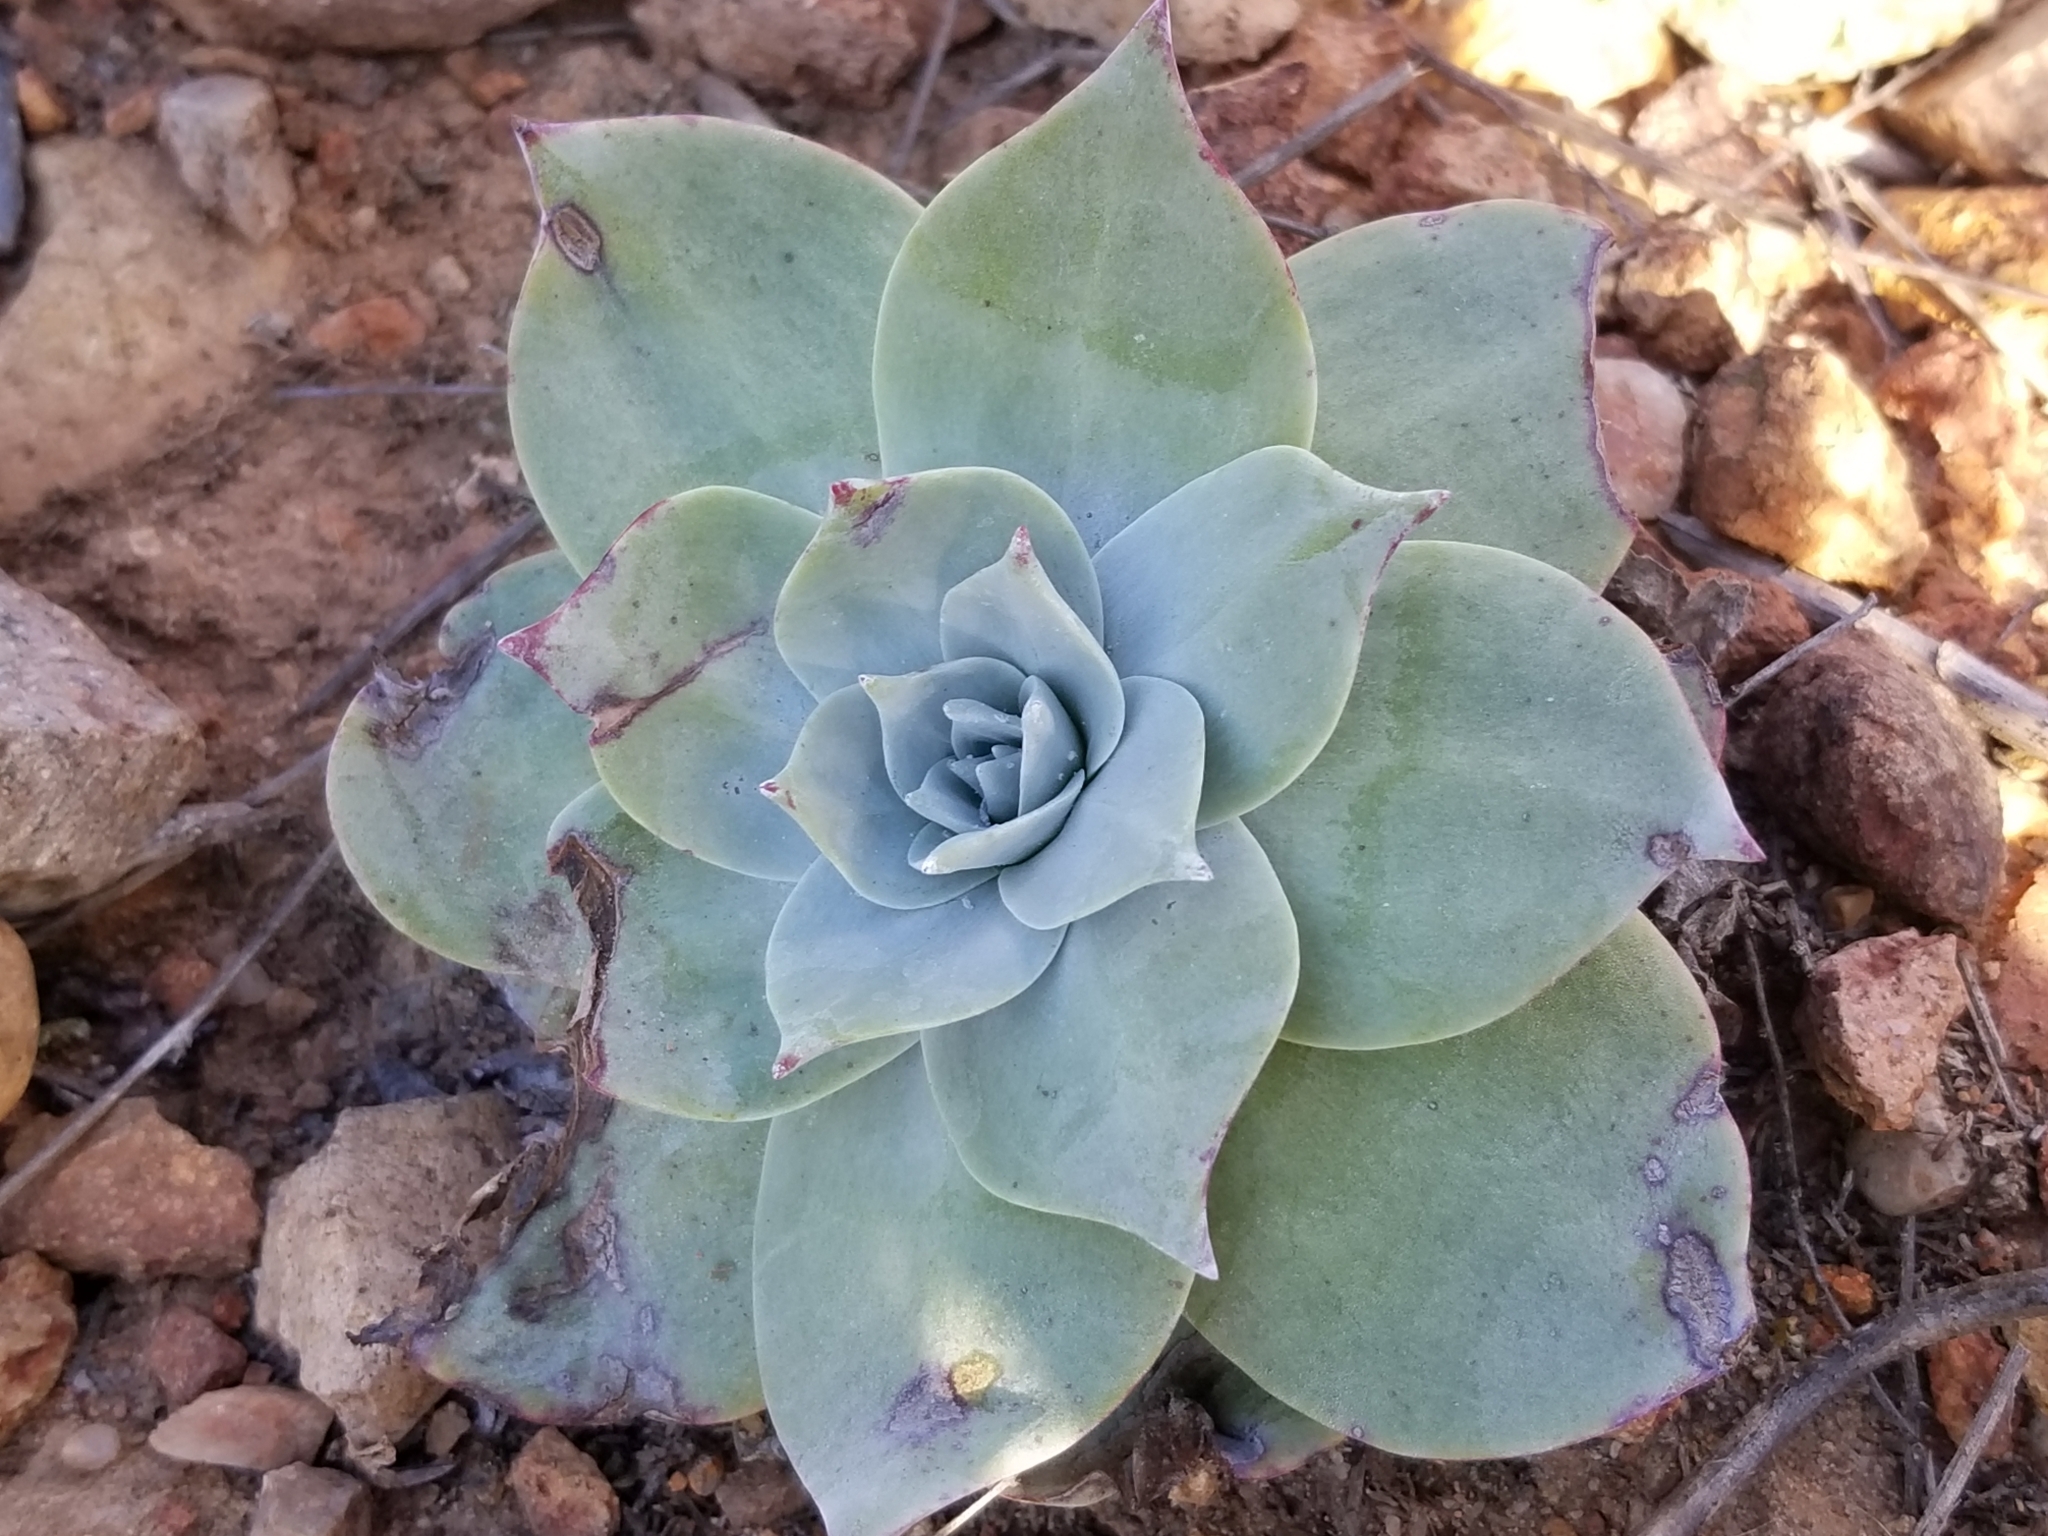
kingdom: Plantae
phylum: Tracheophyta
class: Magnoliopsida
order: Saxifragales
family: Crassulaceae
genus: Dudleya
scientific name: Dudleya pulverulenta
